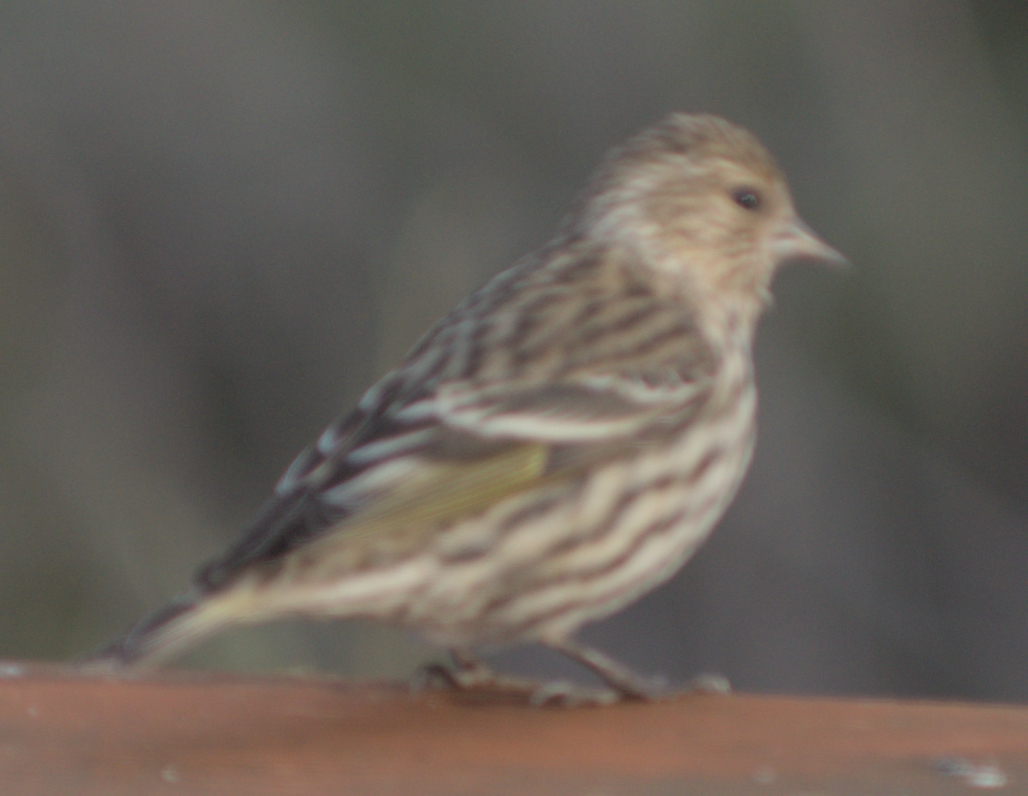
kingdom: Animalia
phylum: Chordata
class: Aves
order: Passeriformes
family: Fringillidae
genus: Spinus
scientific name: Spinus pinus
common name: Pine siskin
